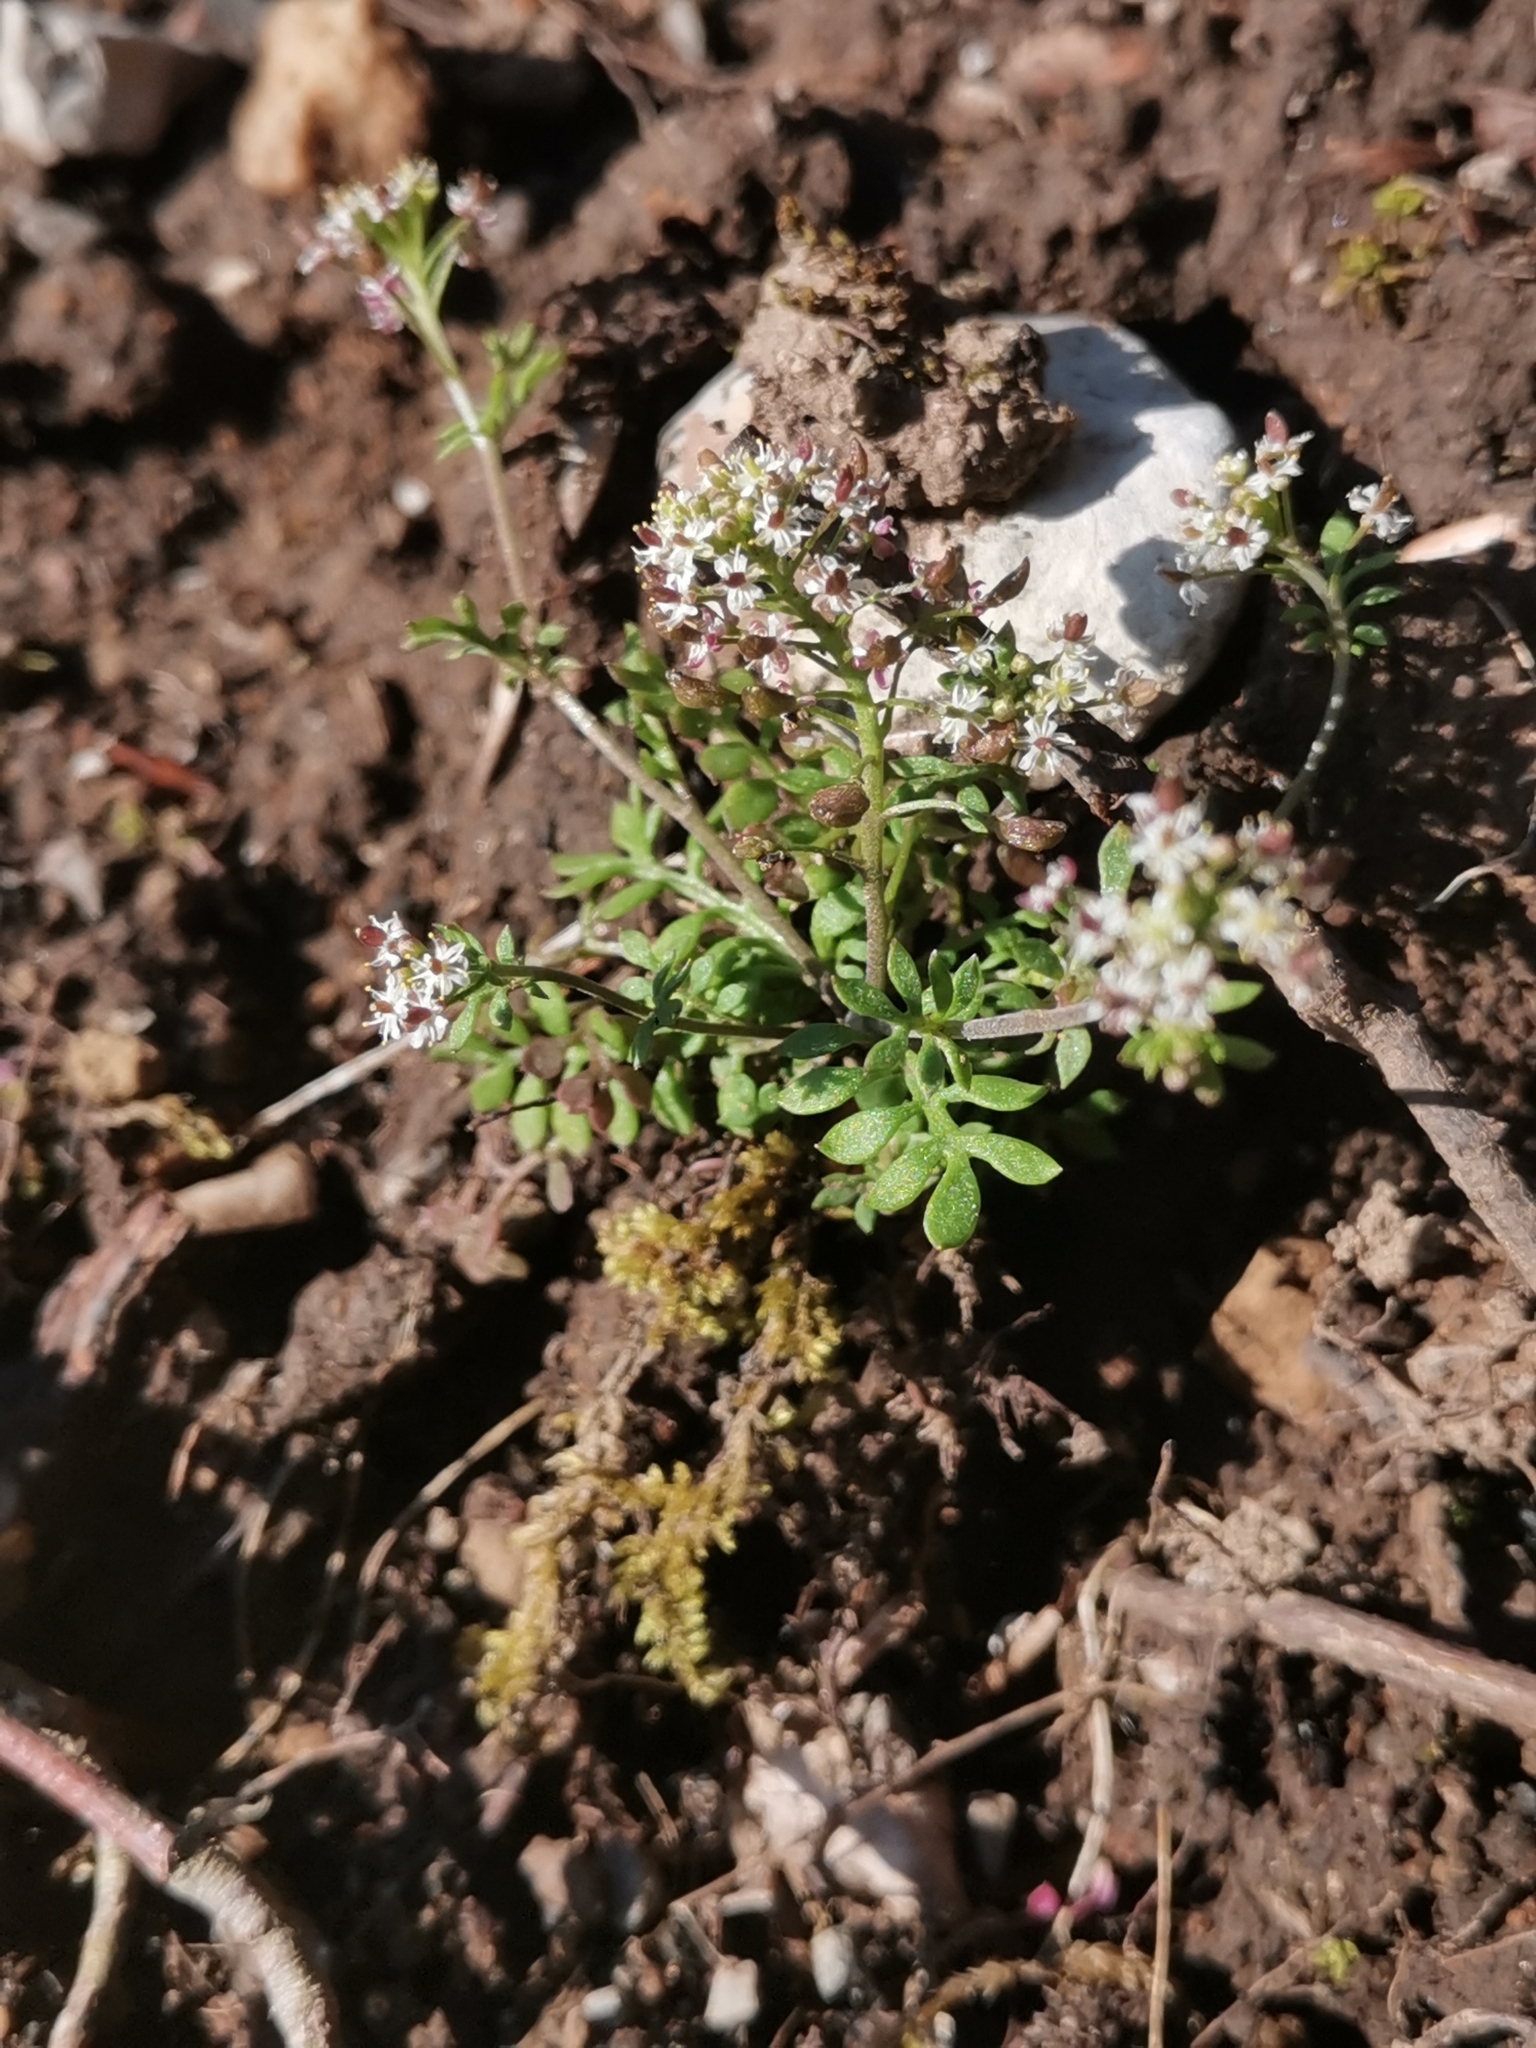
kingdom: Plantae
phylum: Tracheophyta
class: Magnoliopsida
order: Brassicales
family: Brassicaceae
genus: Hornungia
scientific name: Hornungia petraea
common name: Hutchinsia
